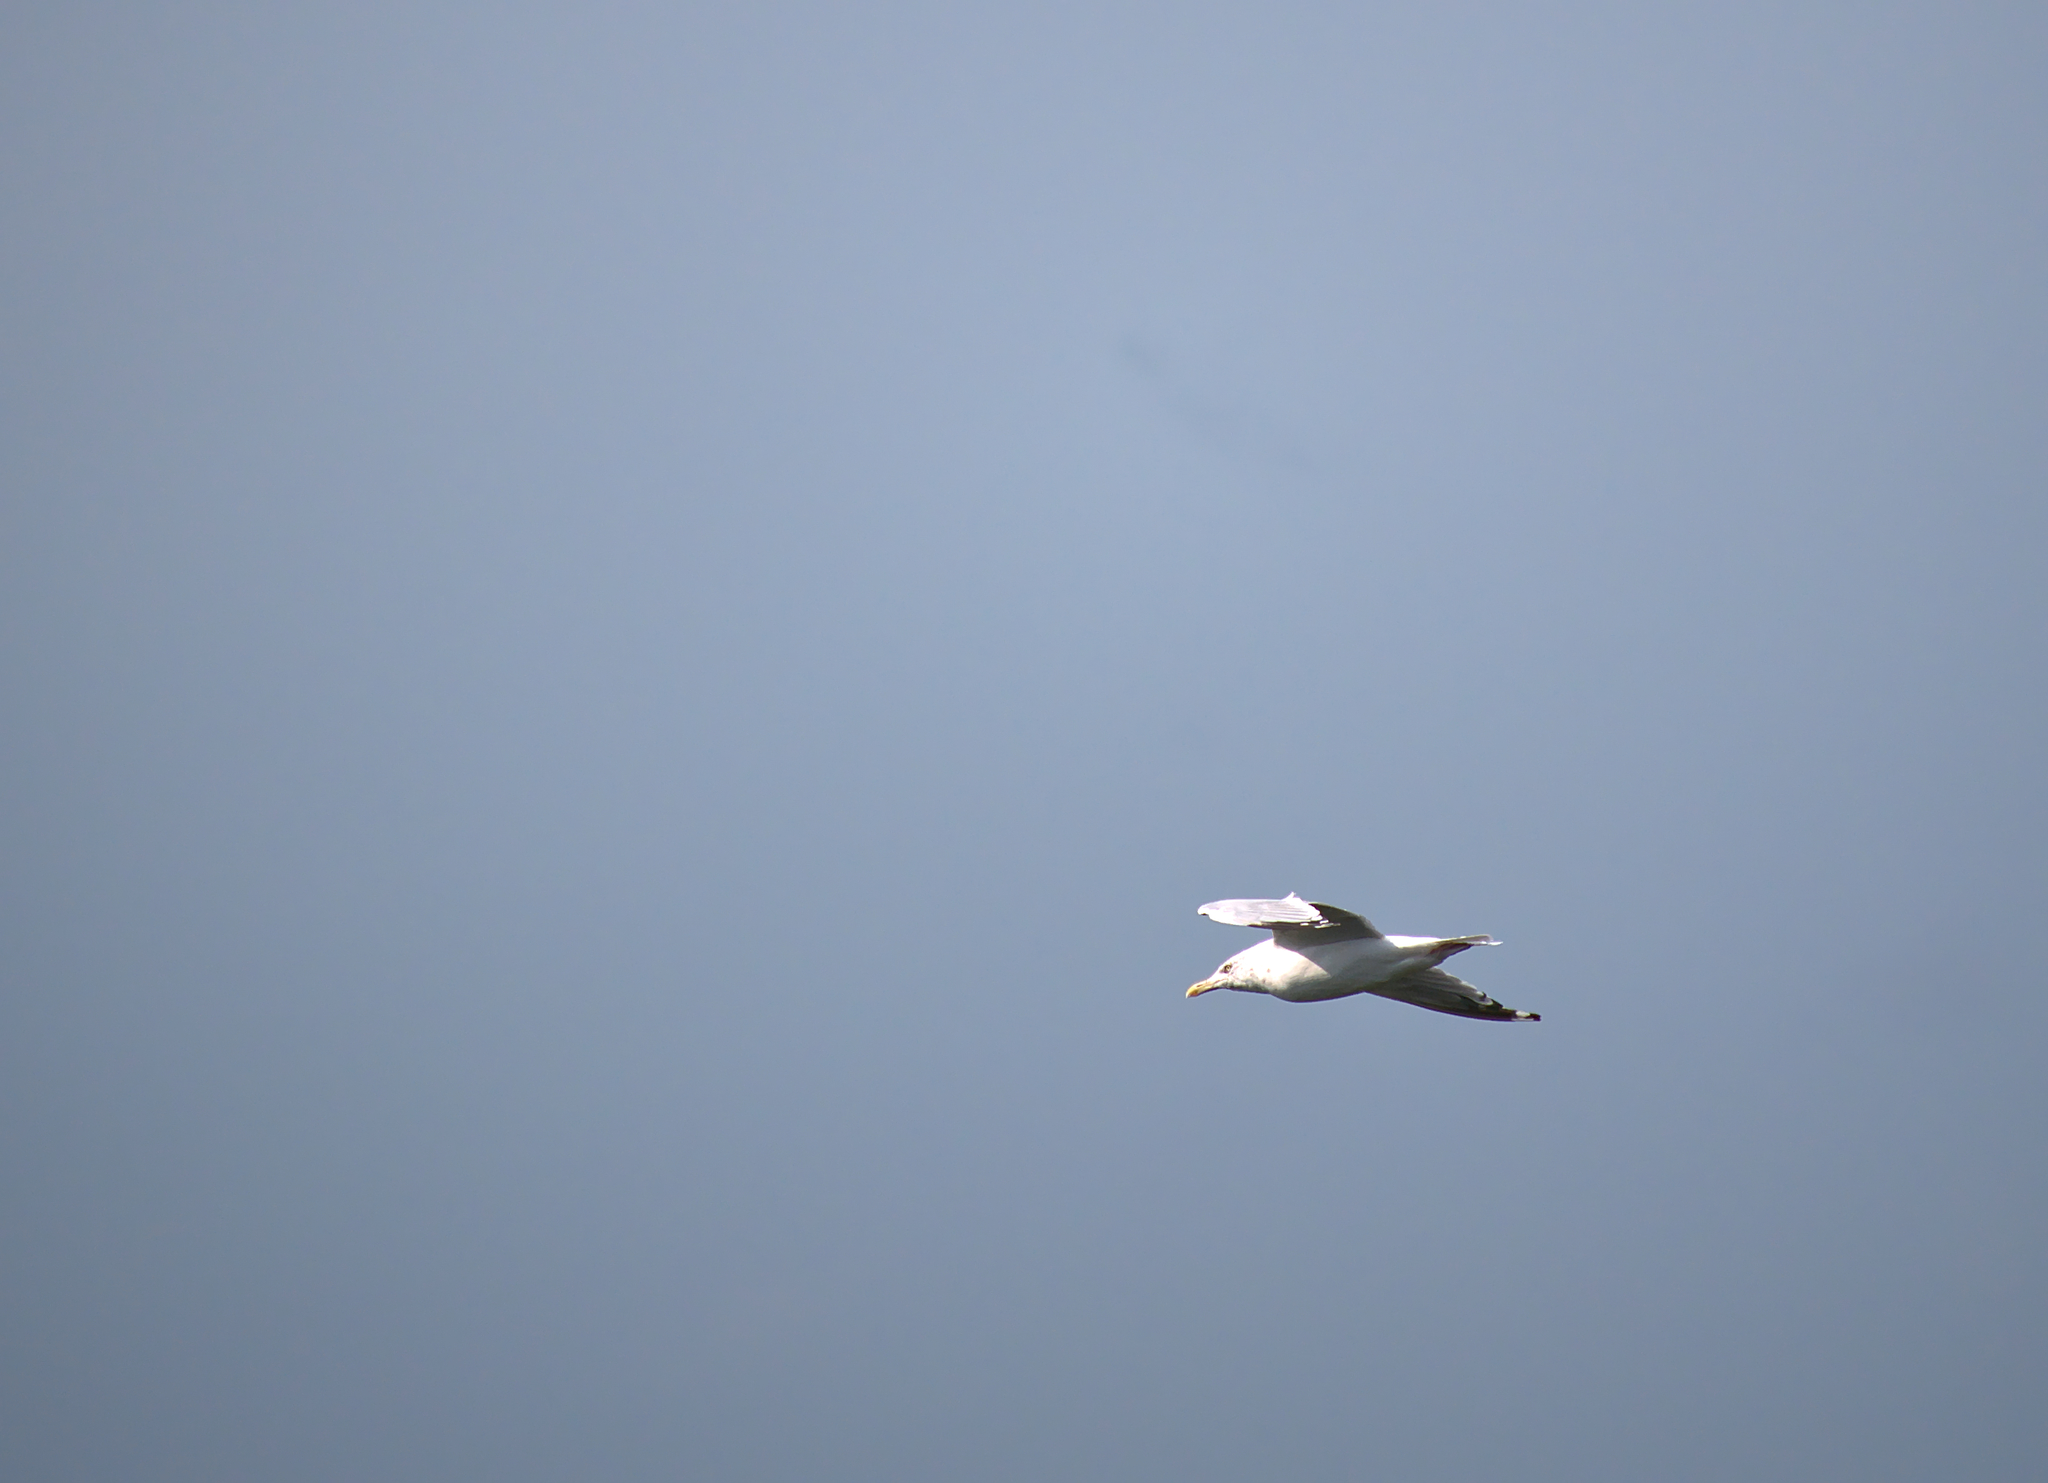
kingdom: Animalia
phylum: Chordata
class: Aves
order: Charadriiformes
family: Laridae
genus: Larus
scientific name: Larus argentatus
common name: Herring gull
